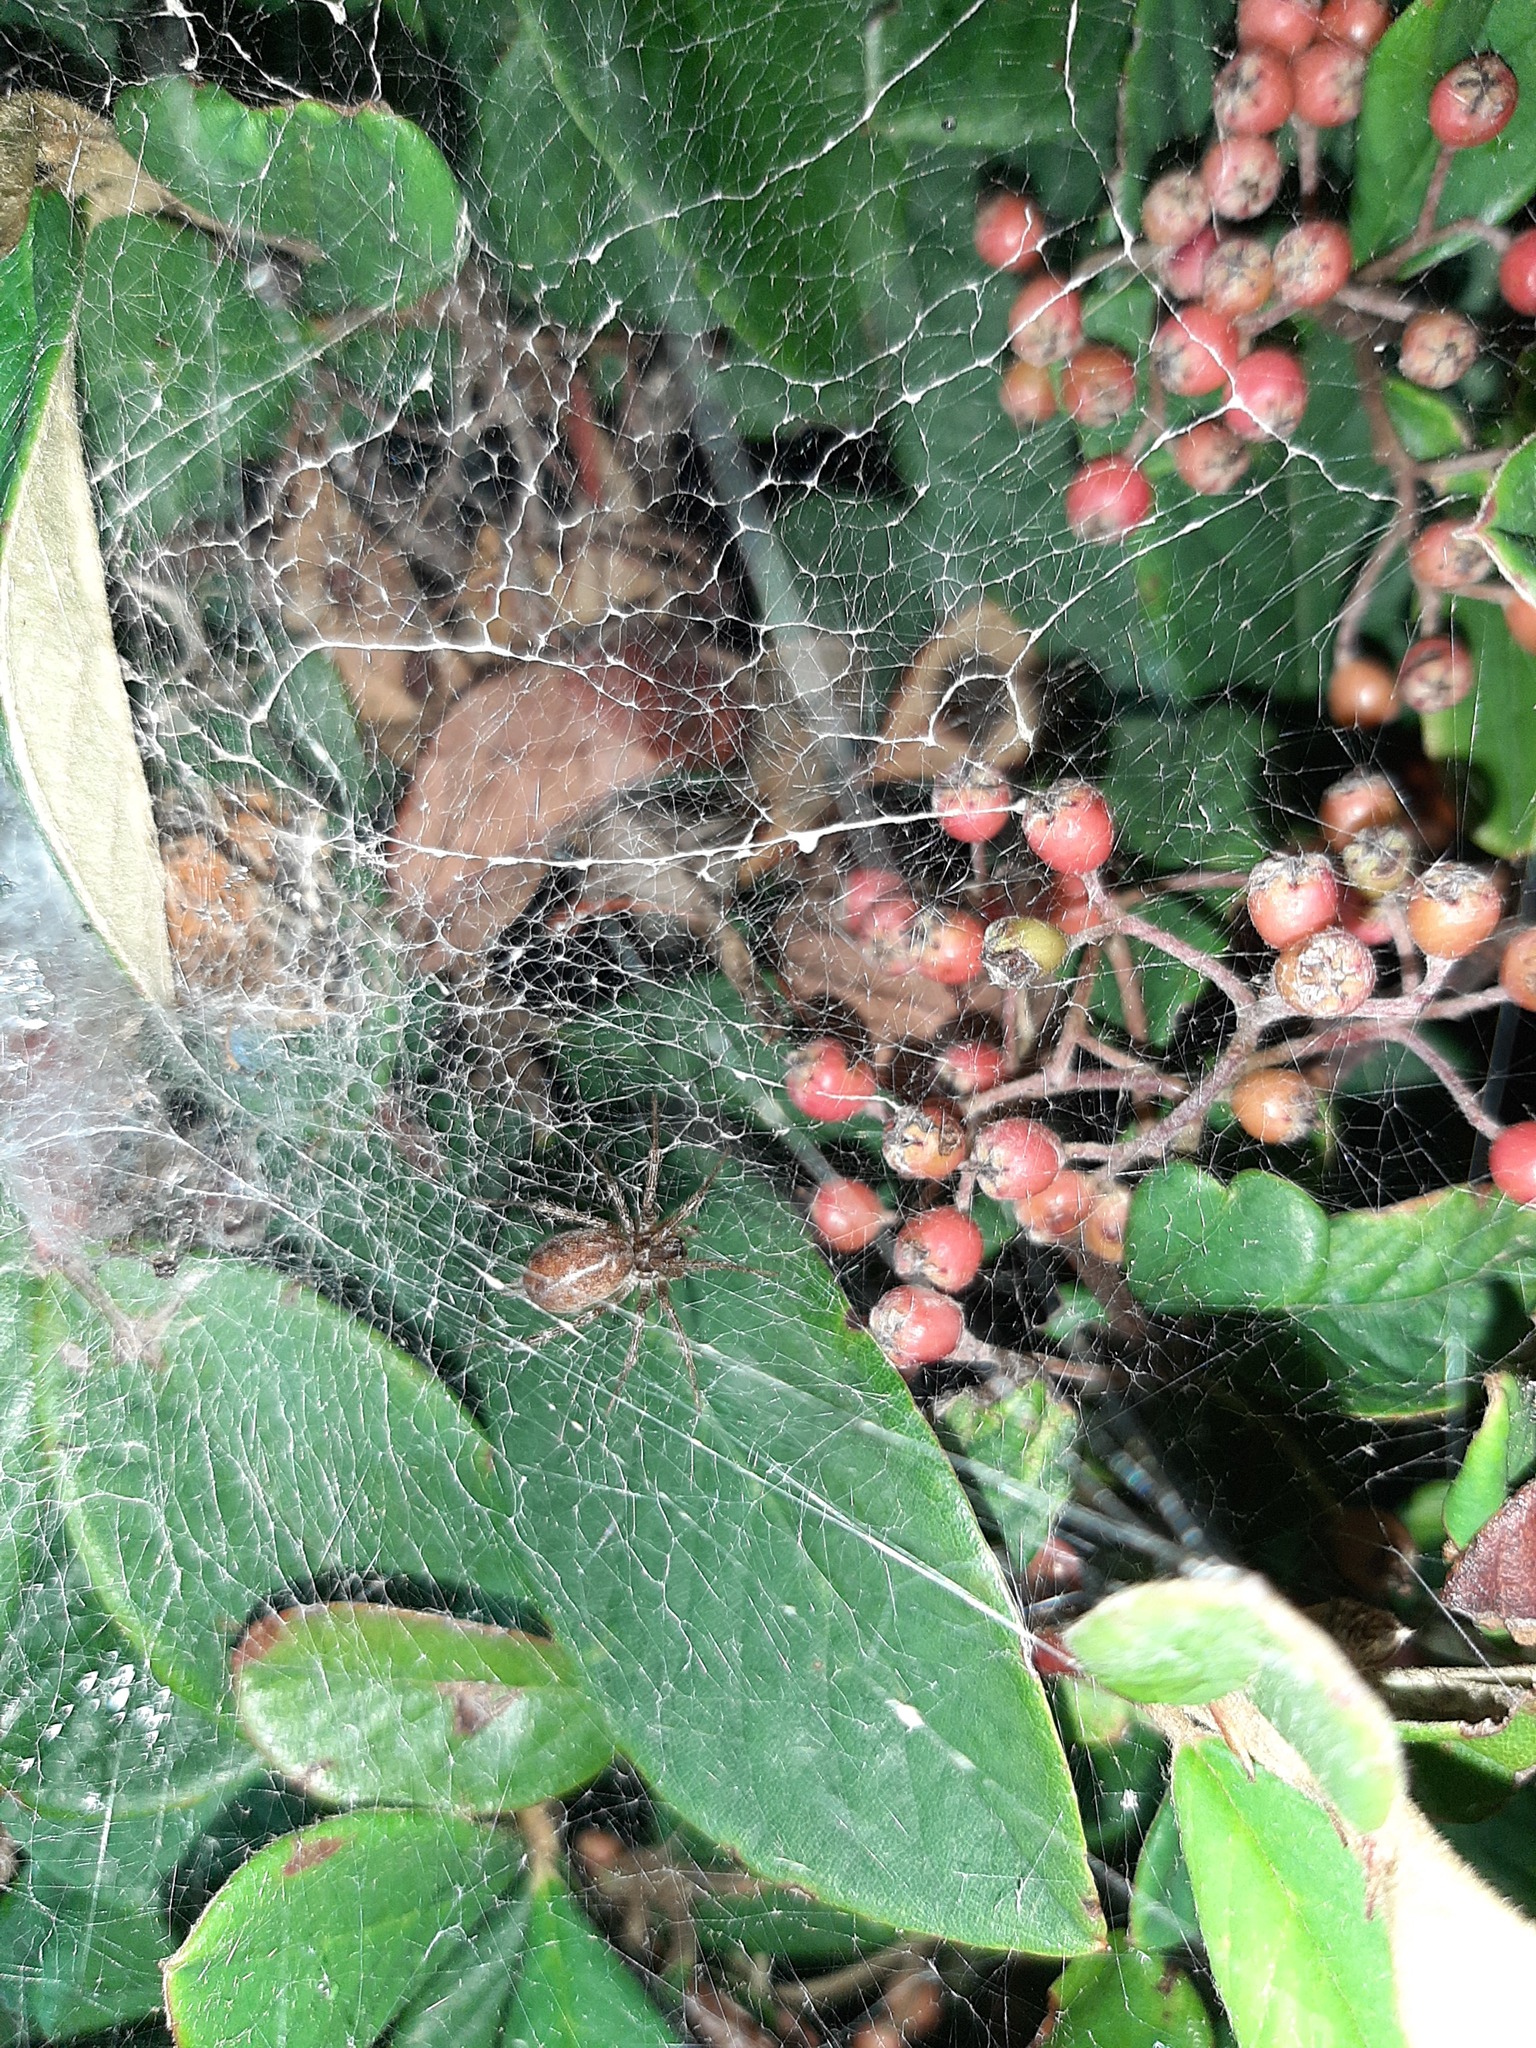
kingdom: Animalia
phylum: Arthropoda
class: Arachnida
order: Araneae
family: Agelenidae
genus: Allagelena
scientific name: Allagelena gracilens
